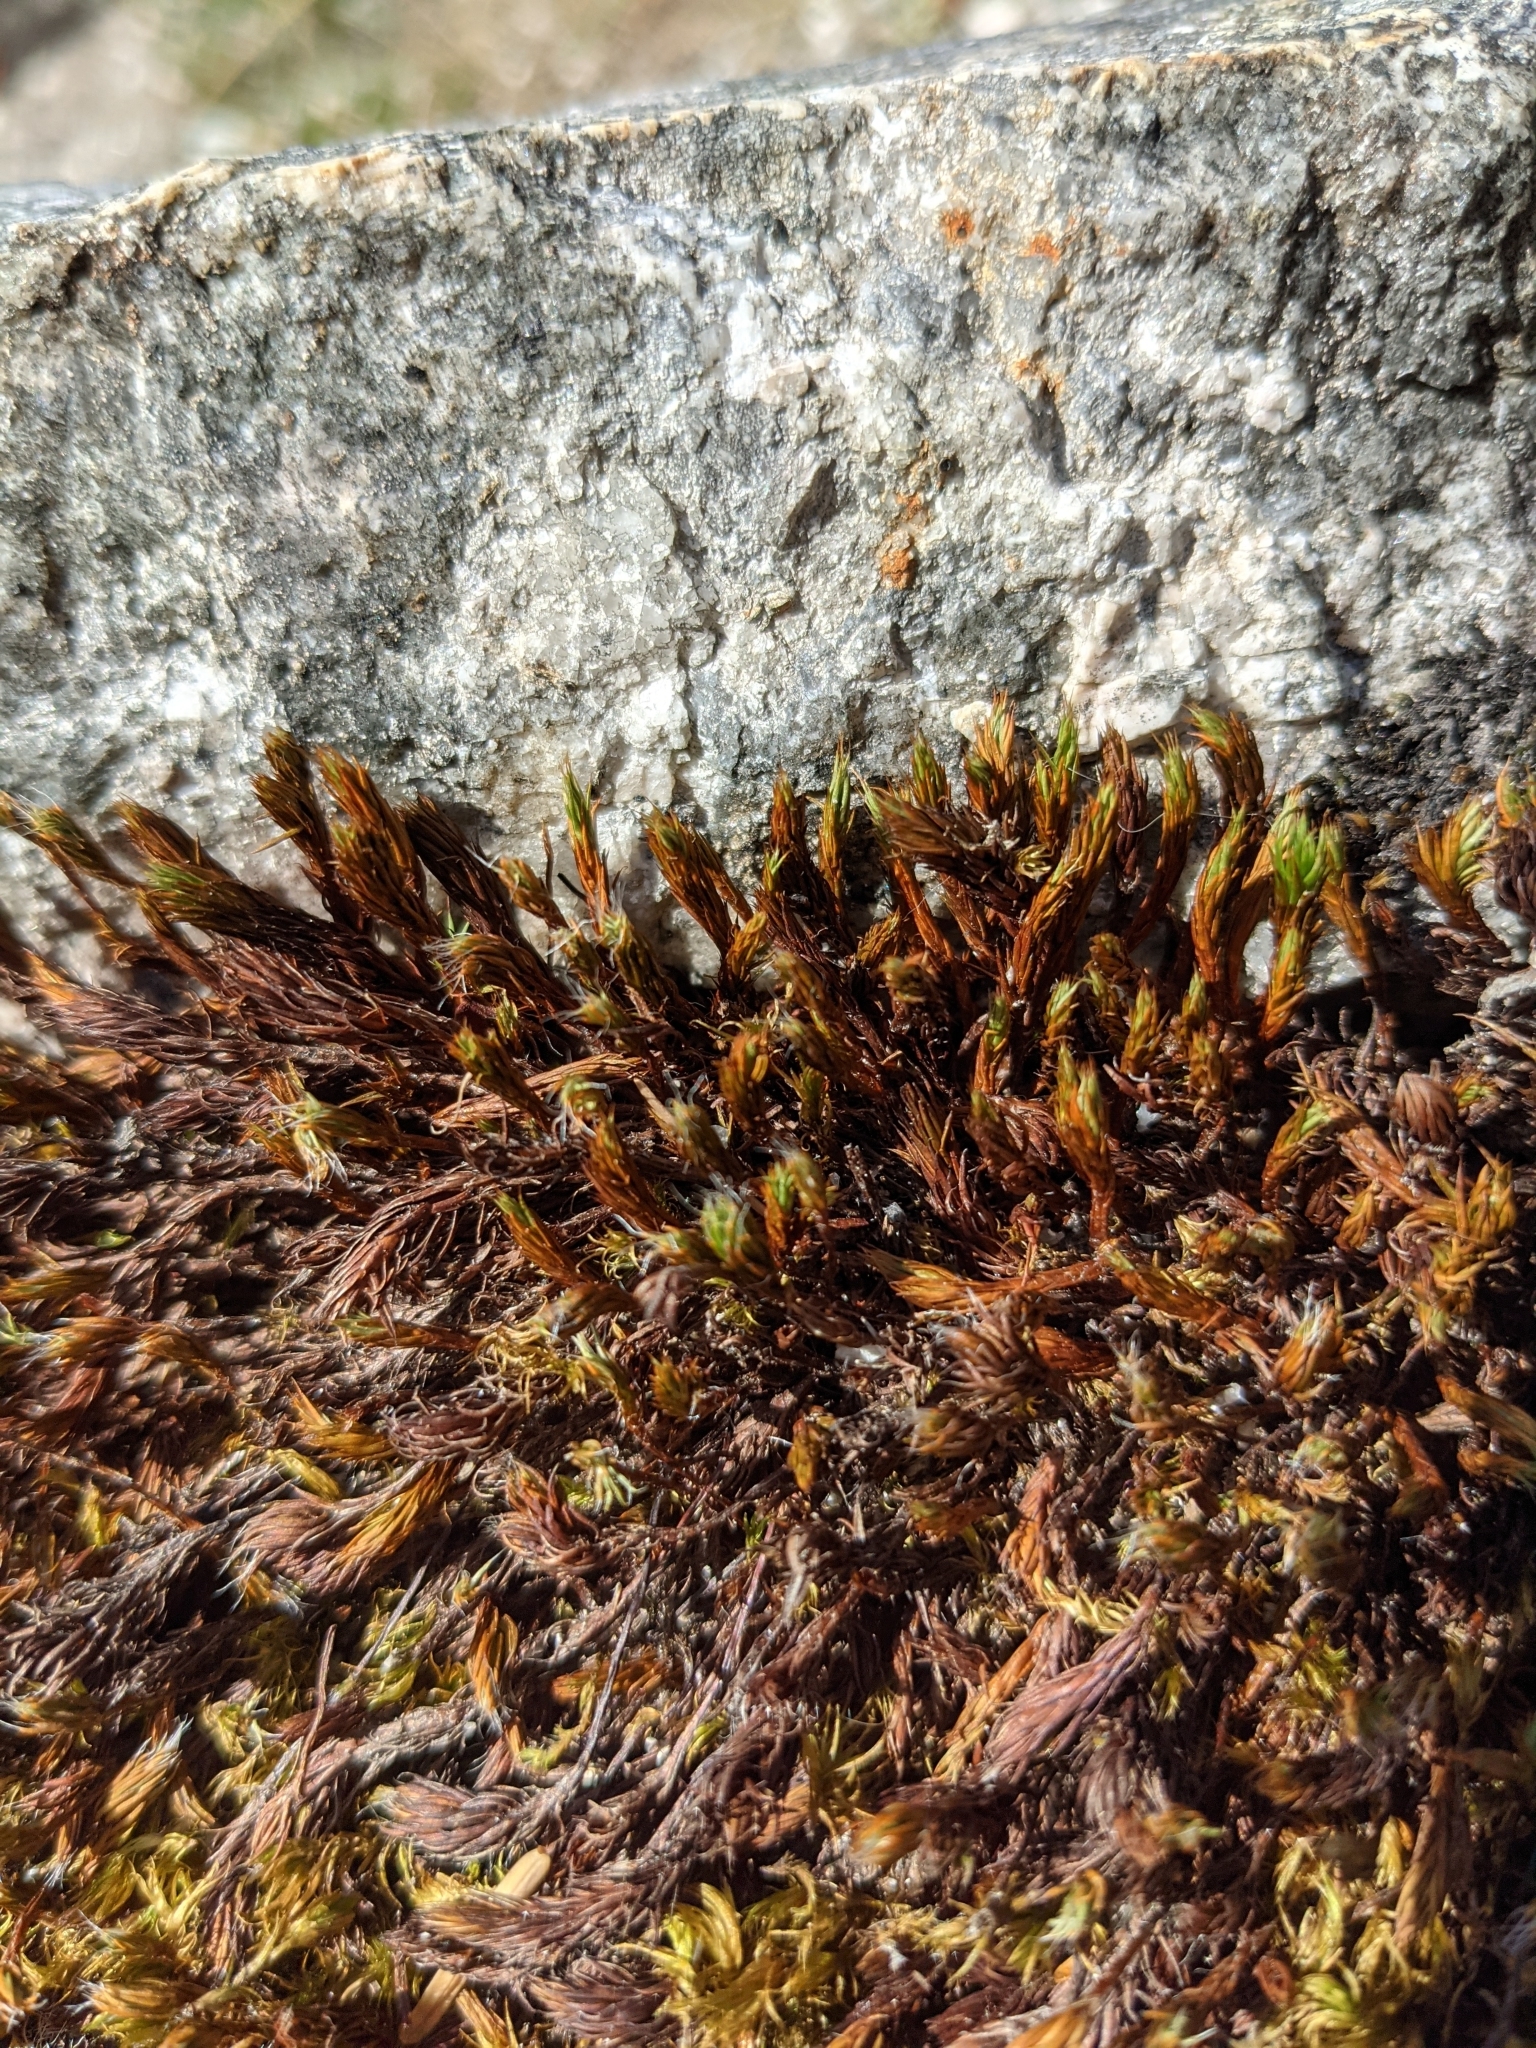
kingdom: Plantae
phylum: Bryophyta
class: Polytrichopsida
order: Polytrichales
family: Polytrichaceae
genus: Polytrichum
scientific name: Polytrichum juniperinum
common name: Juniper haircap moss
